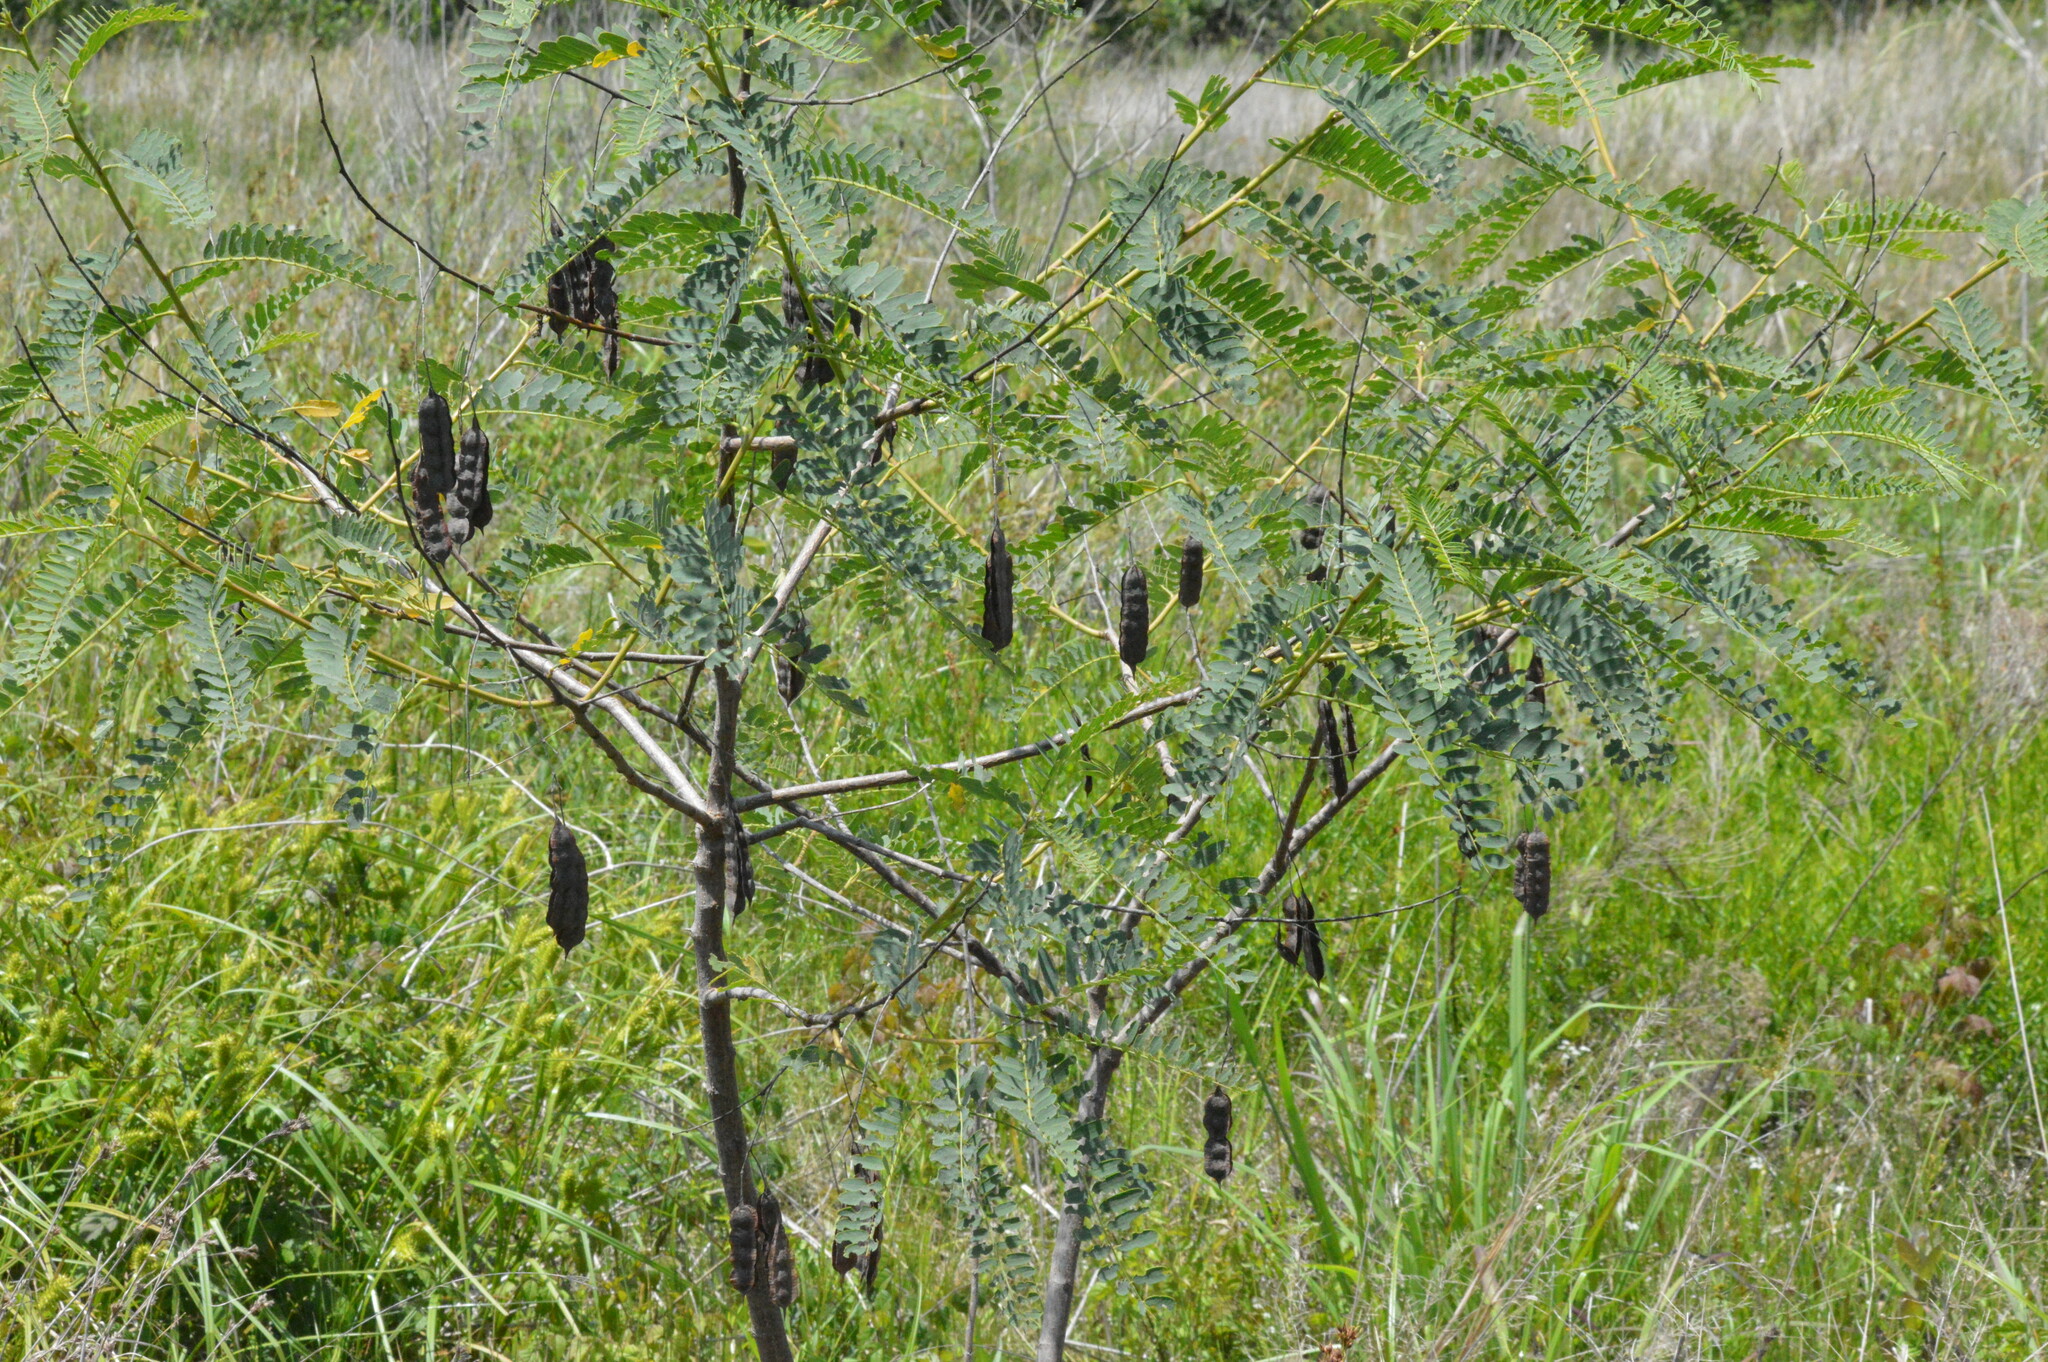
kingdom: Plantae
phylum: Tracheophyta
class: Magnoliopsida
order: Fabales
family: Fabaceae
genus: Sesbania
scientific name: Sesbania drummondii
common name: Poison-bean
